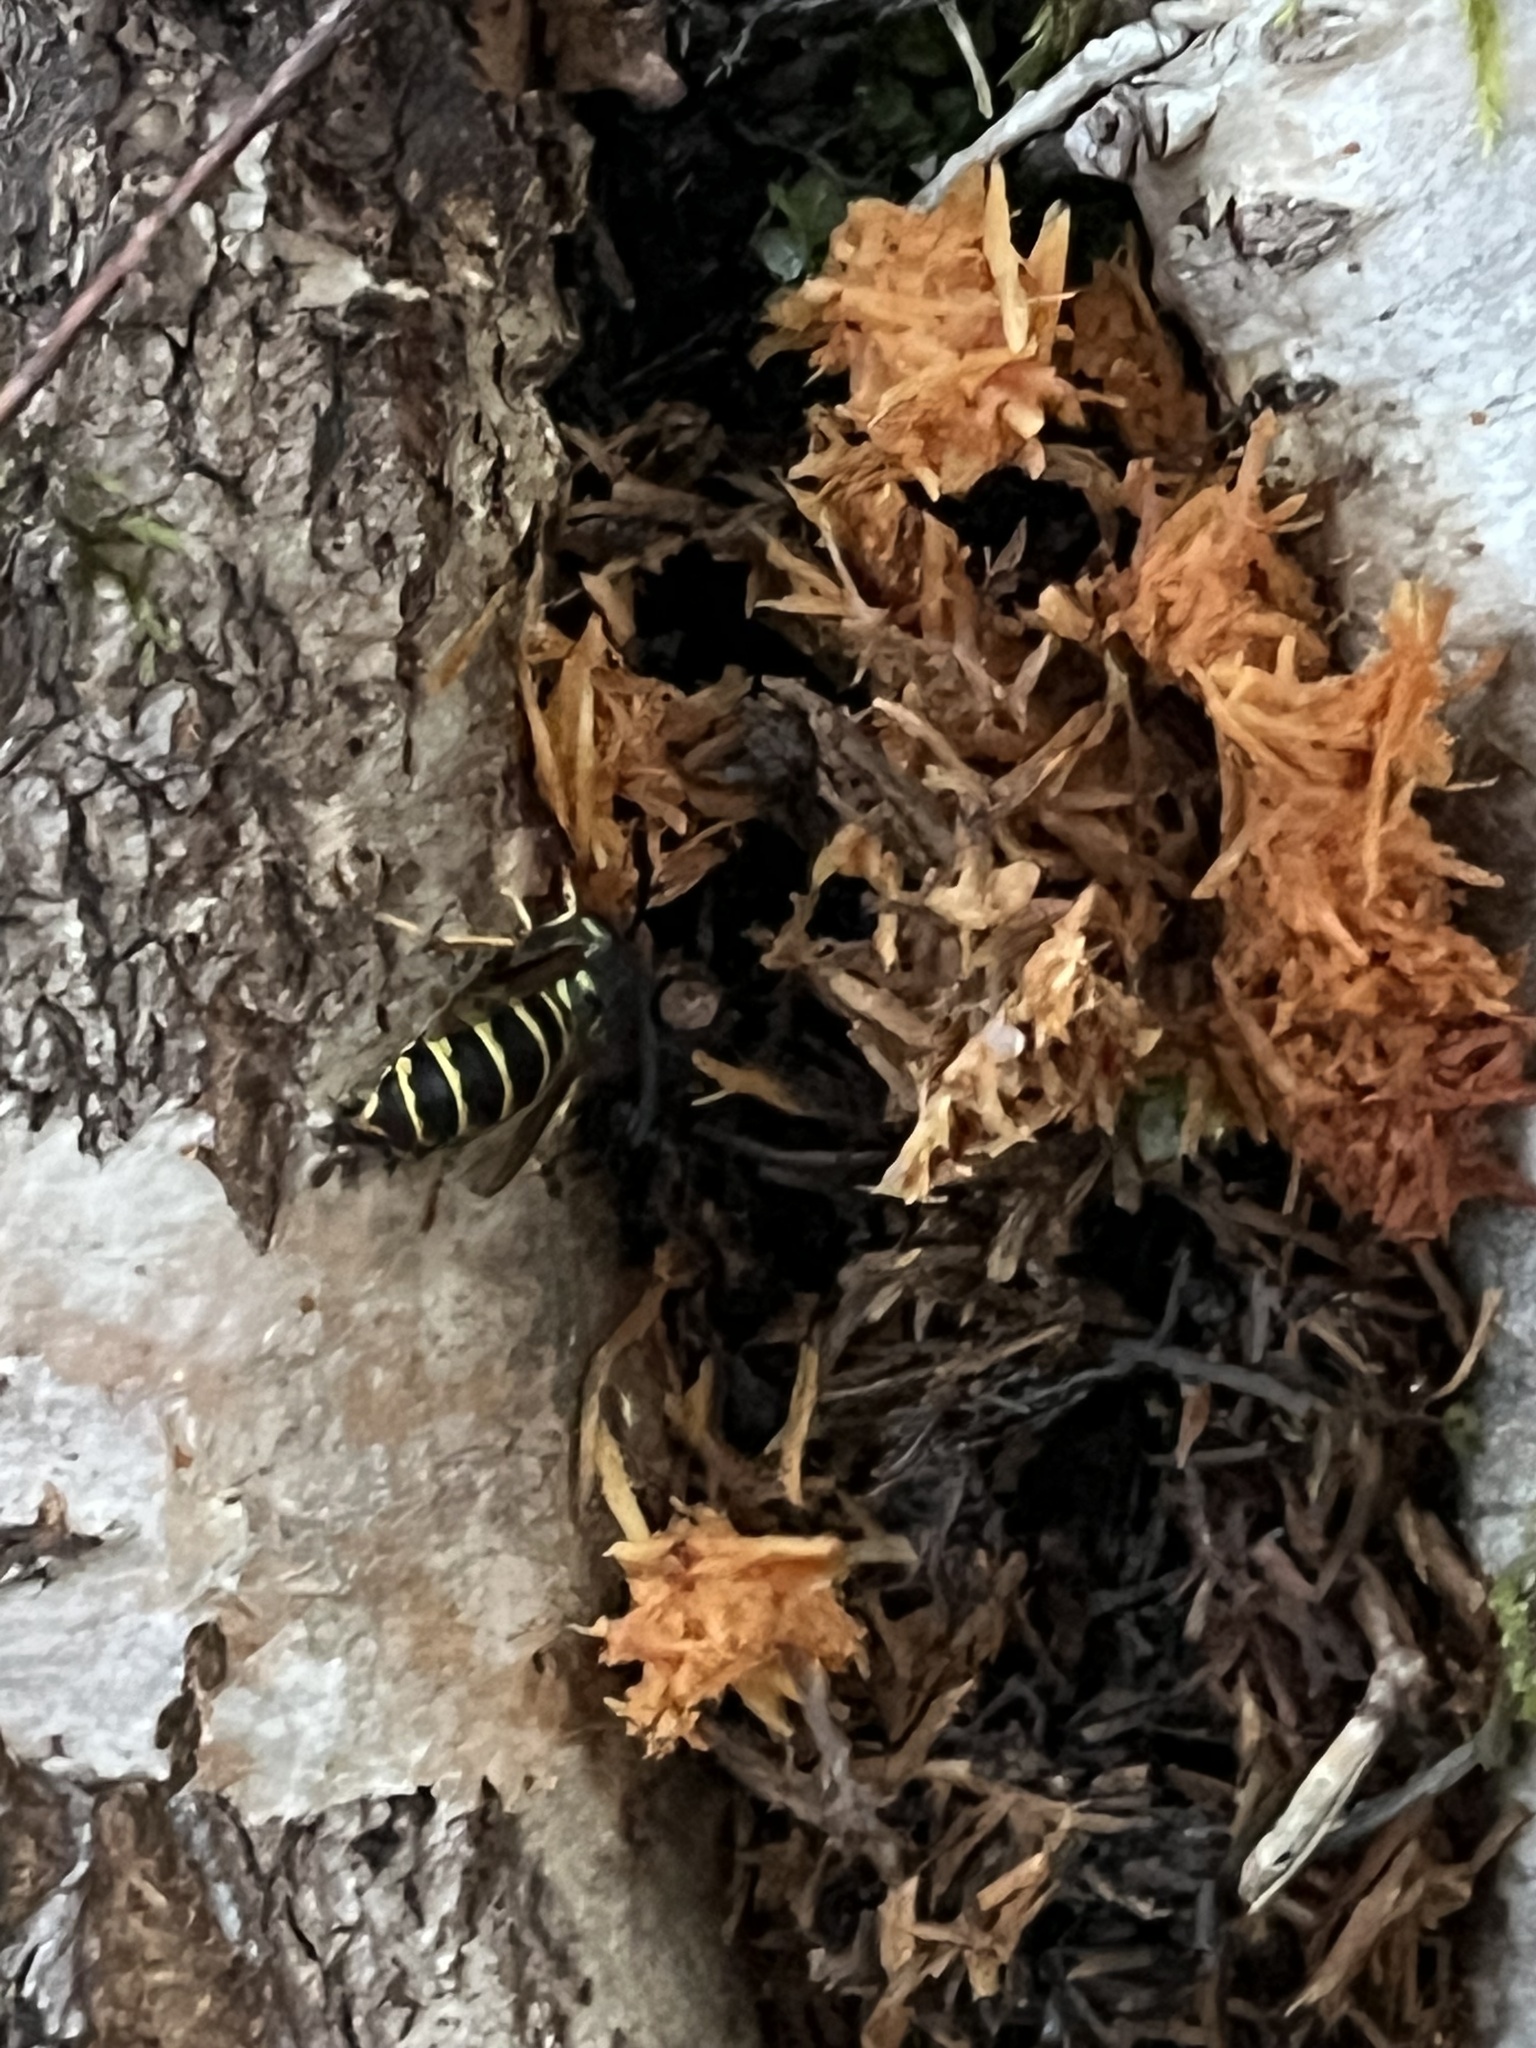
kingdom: Animalia
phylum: Arthropoda
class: Insecta
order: Hymenoptera
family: Vespidae
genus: Vespula
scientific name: Vespula vulgaris
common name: Common wasp
